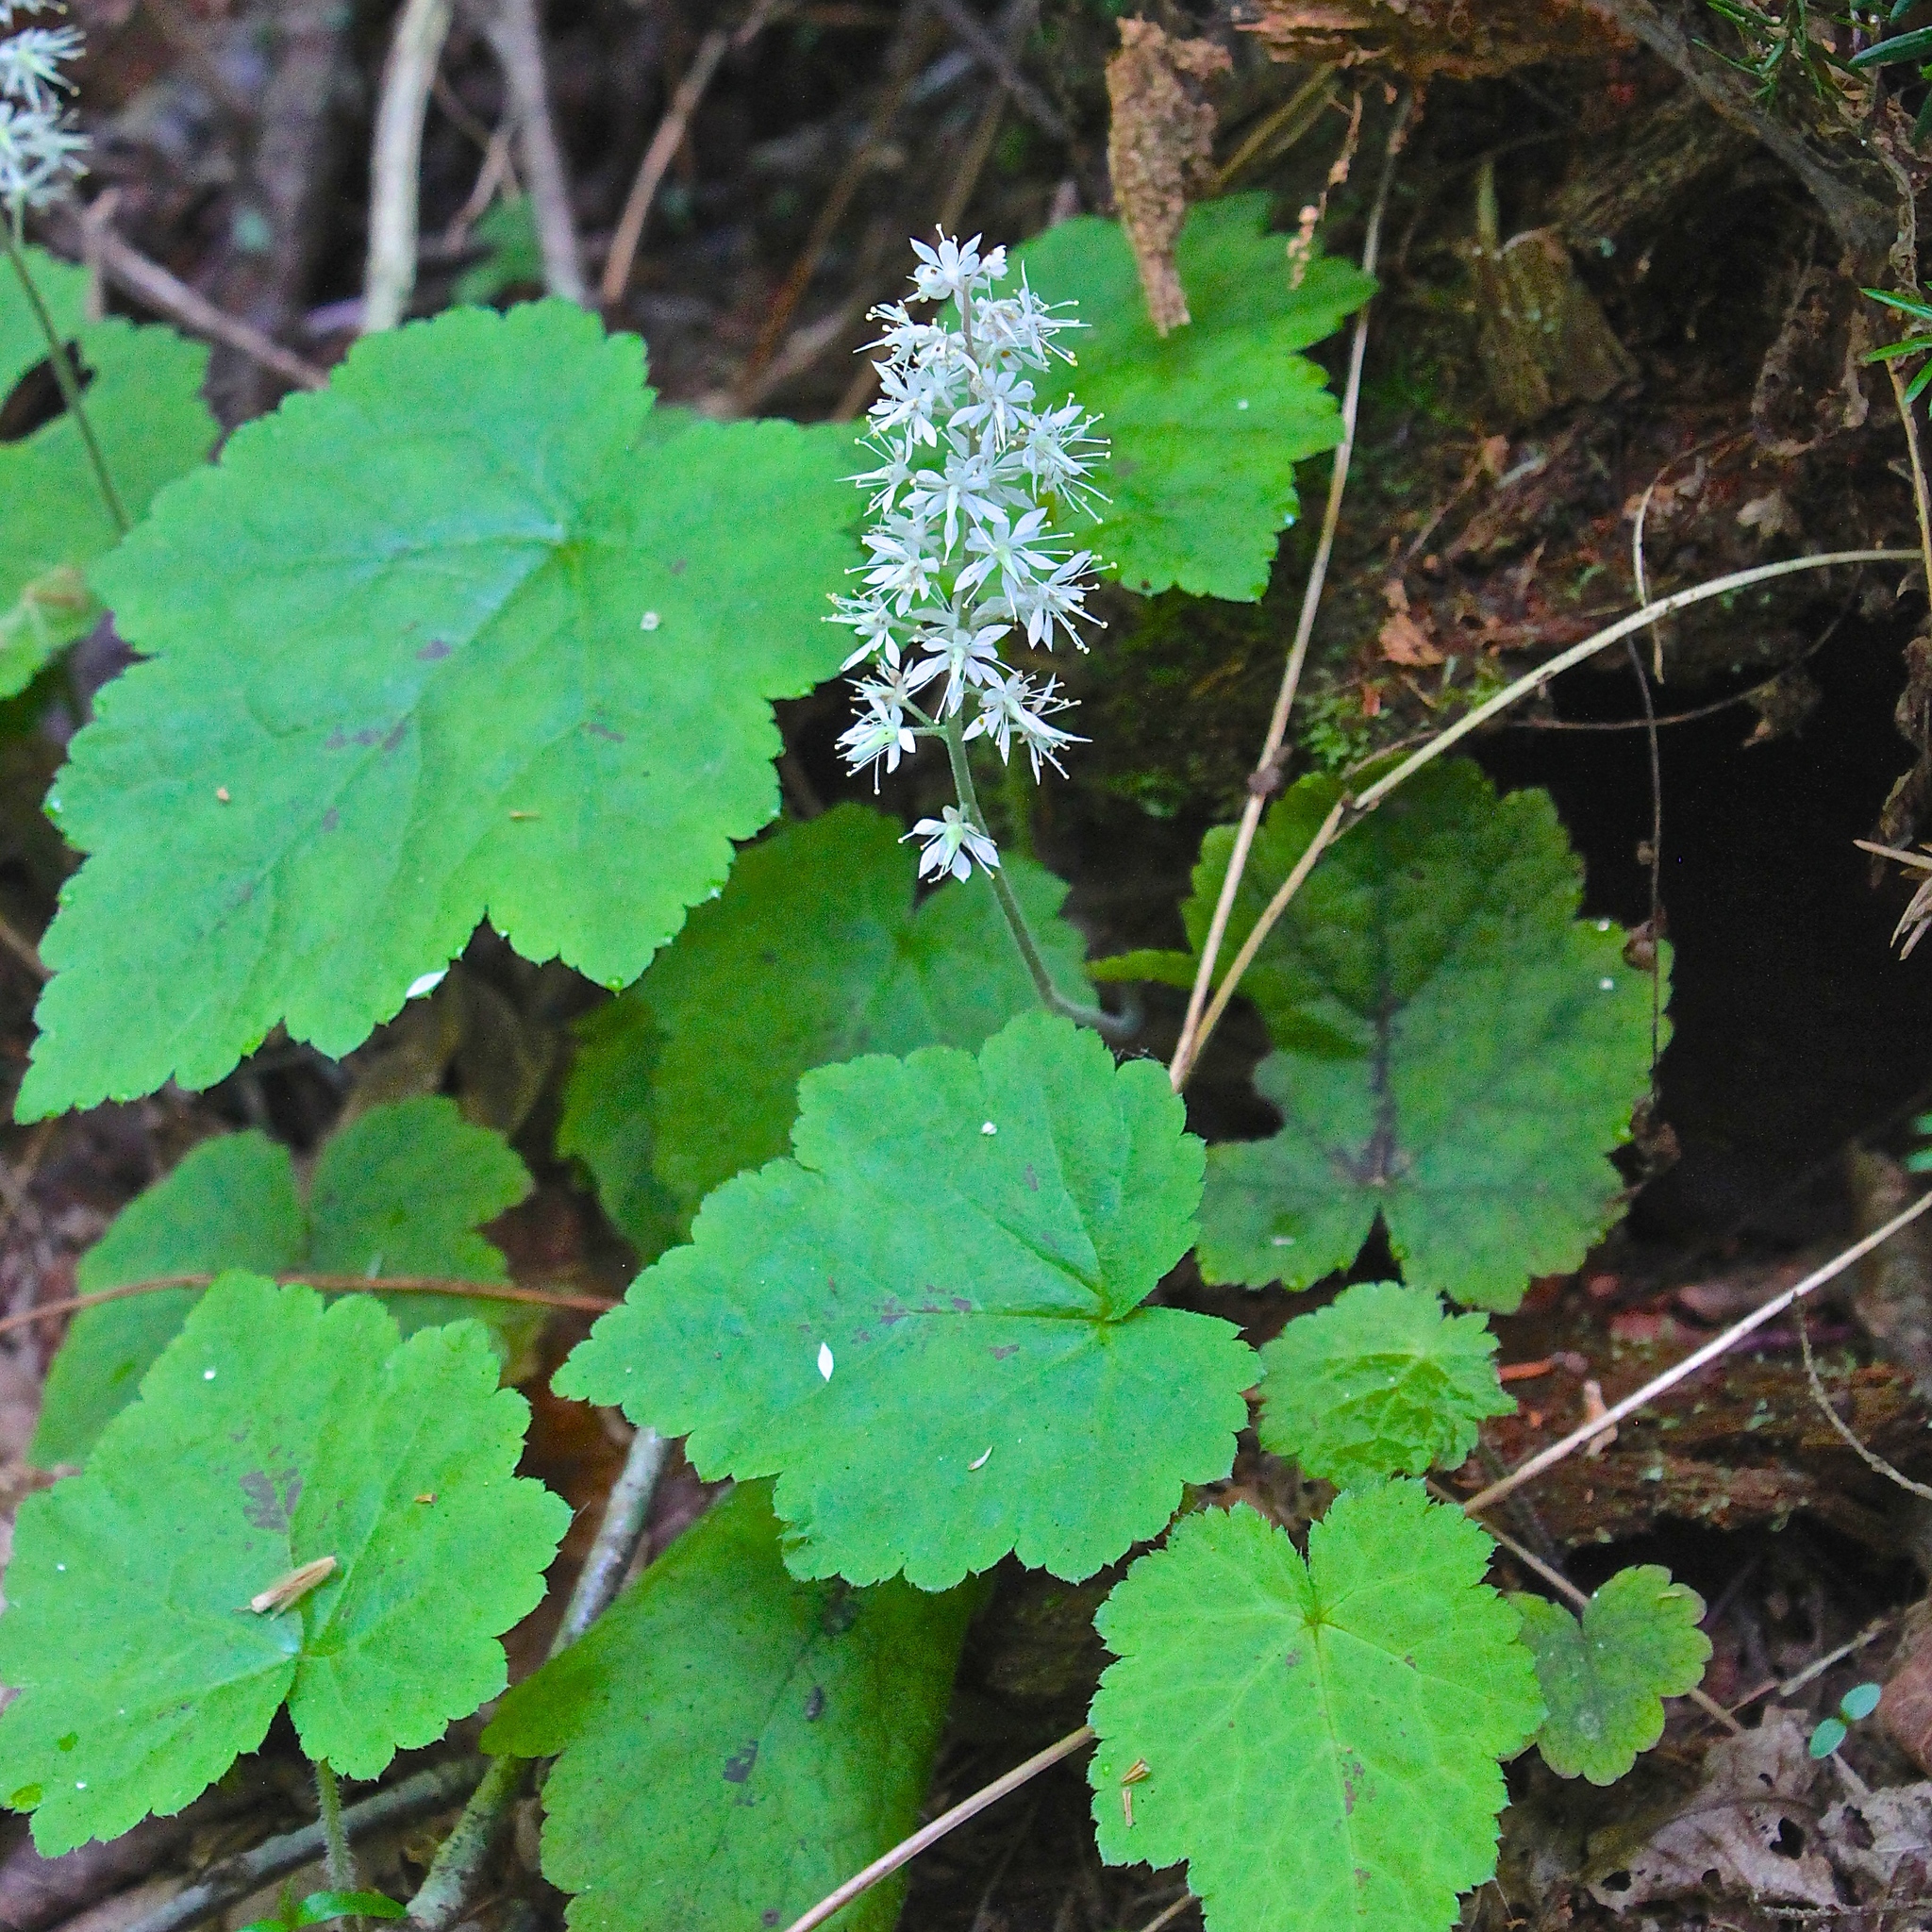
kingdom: Plantae
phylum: Tracheophyta
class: Magnoliopsida
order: Saxifragales
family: Saxifragaceae
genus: Tiarella
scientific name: Tiarella stolonifera
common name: Stoloniferous foamflower
